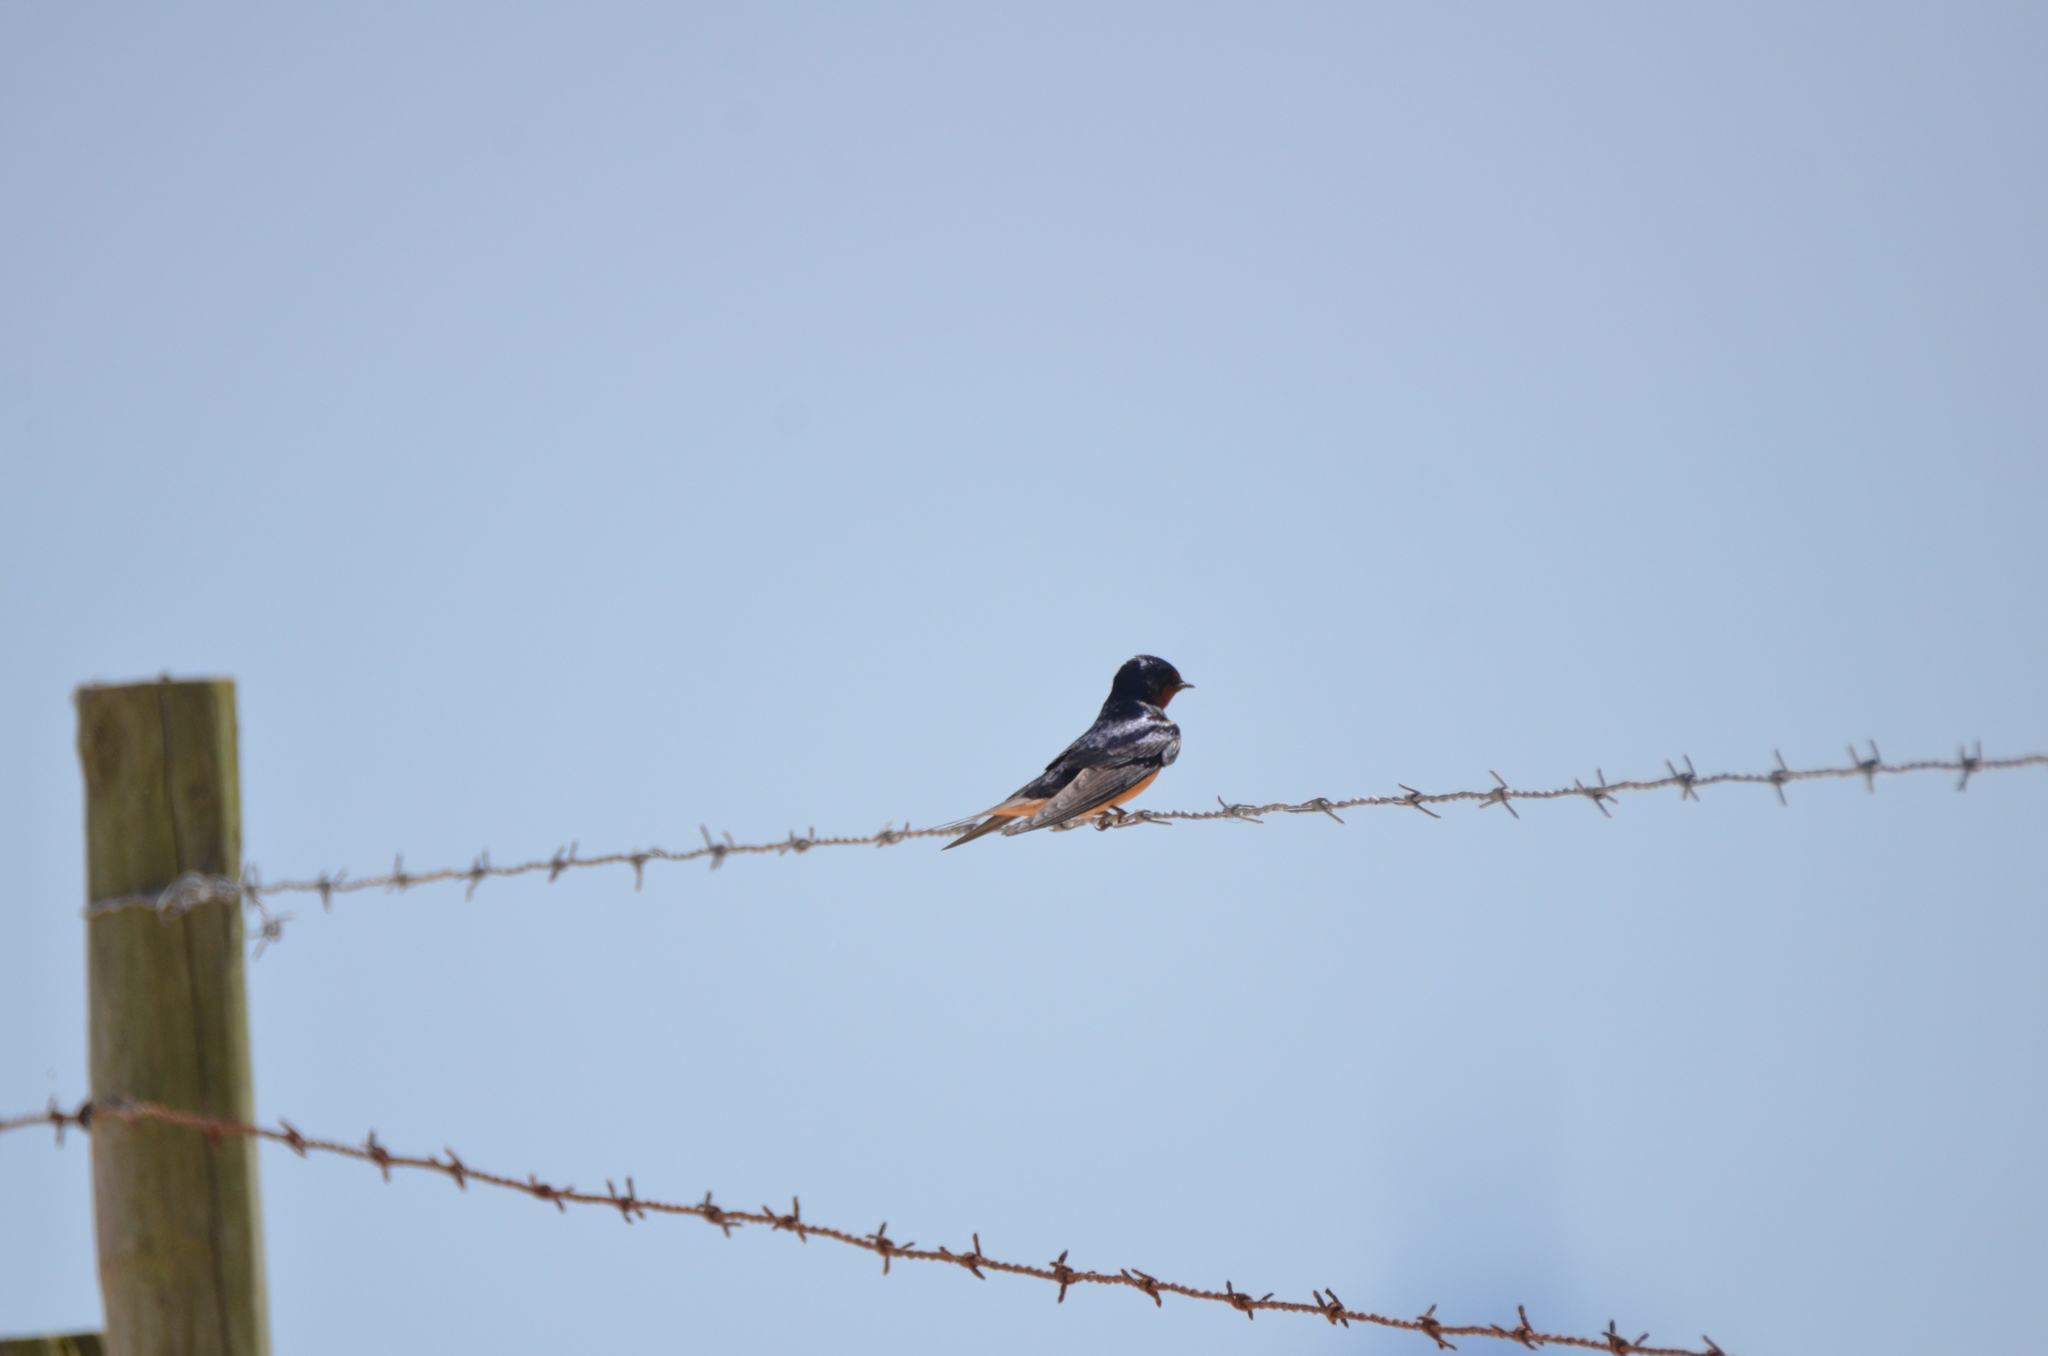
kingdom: Animalia
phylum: Chordata
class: Aves
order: Passeriformes
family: Hirundinidae
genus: Hirundo
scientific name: Hirundo rustica
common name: Barn swallow
